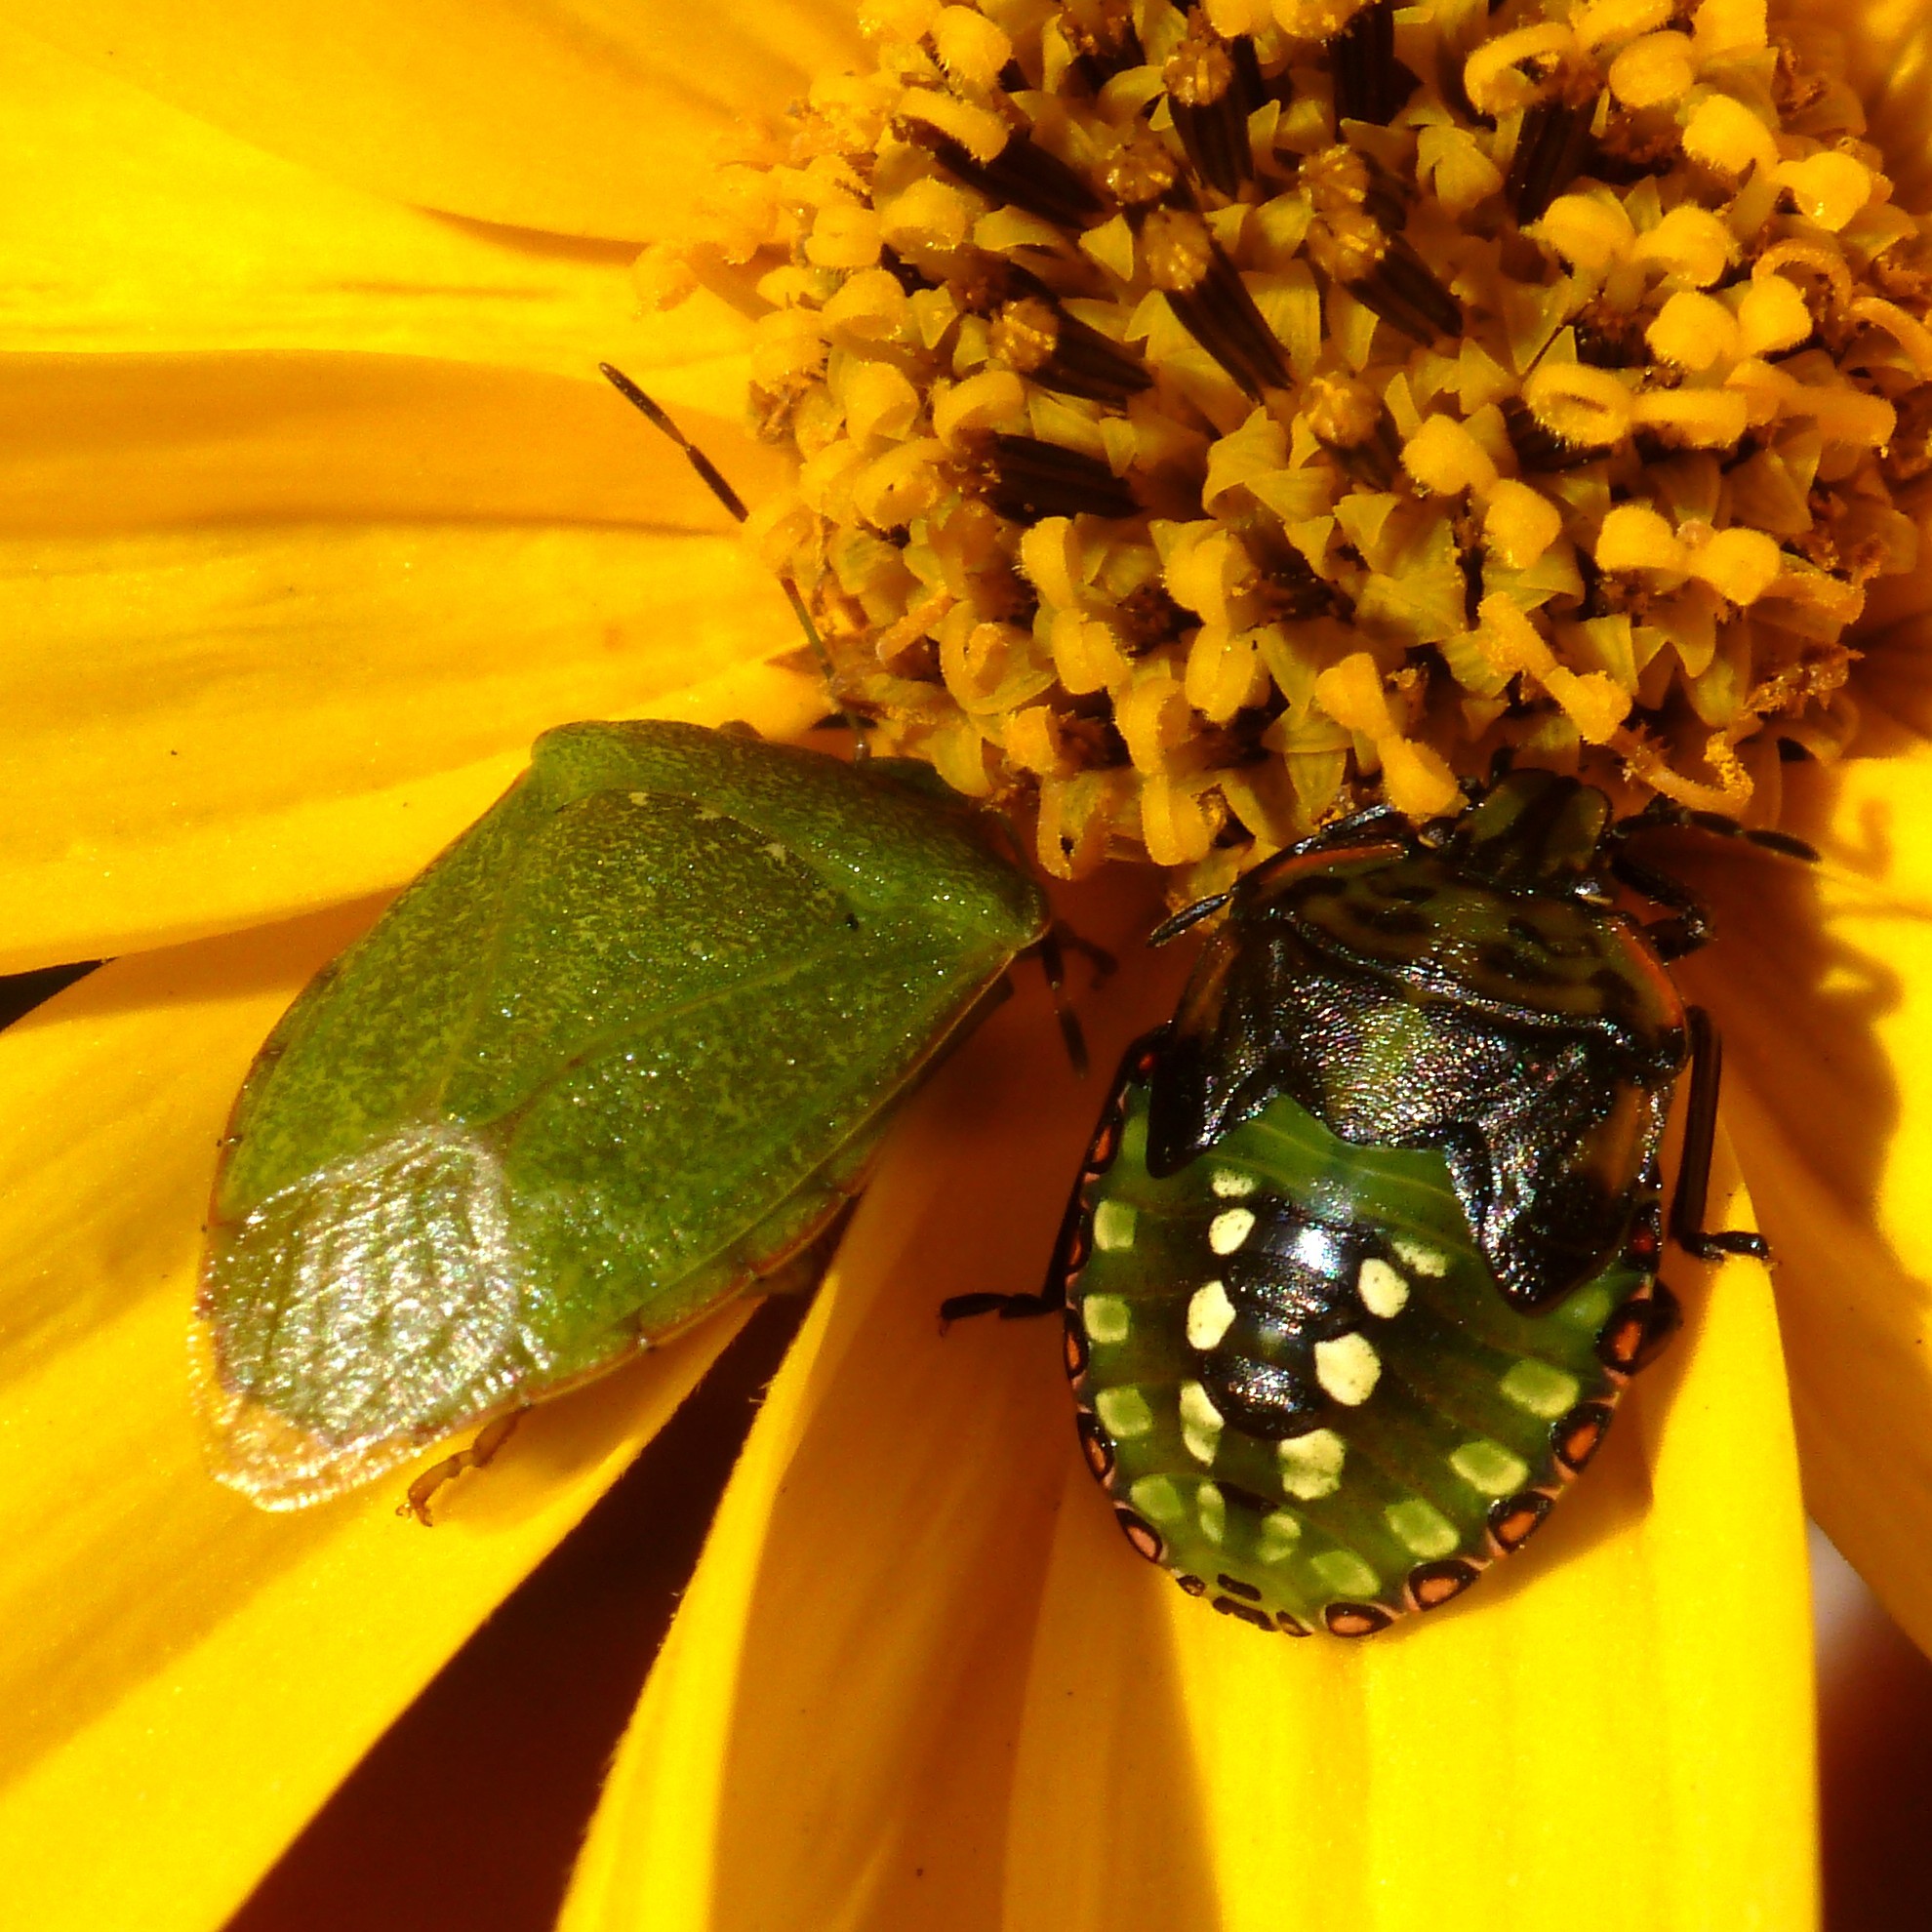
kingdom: Animalia
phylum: Arthropoda
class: Insecta
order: Hemiptera
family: Pentatomidae
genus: Nezara
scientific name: Nezara viridula
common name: Southern green stink bug
